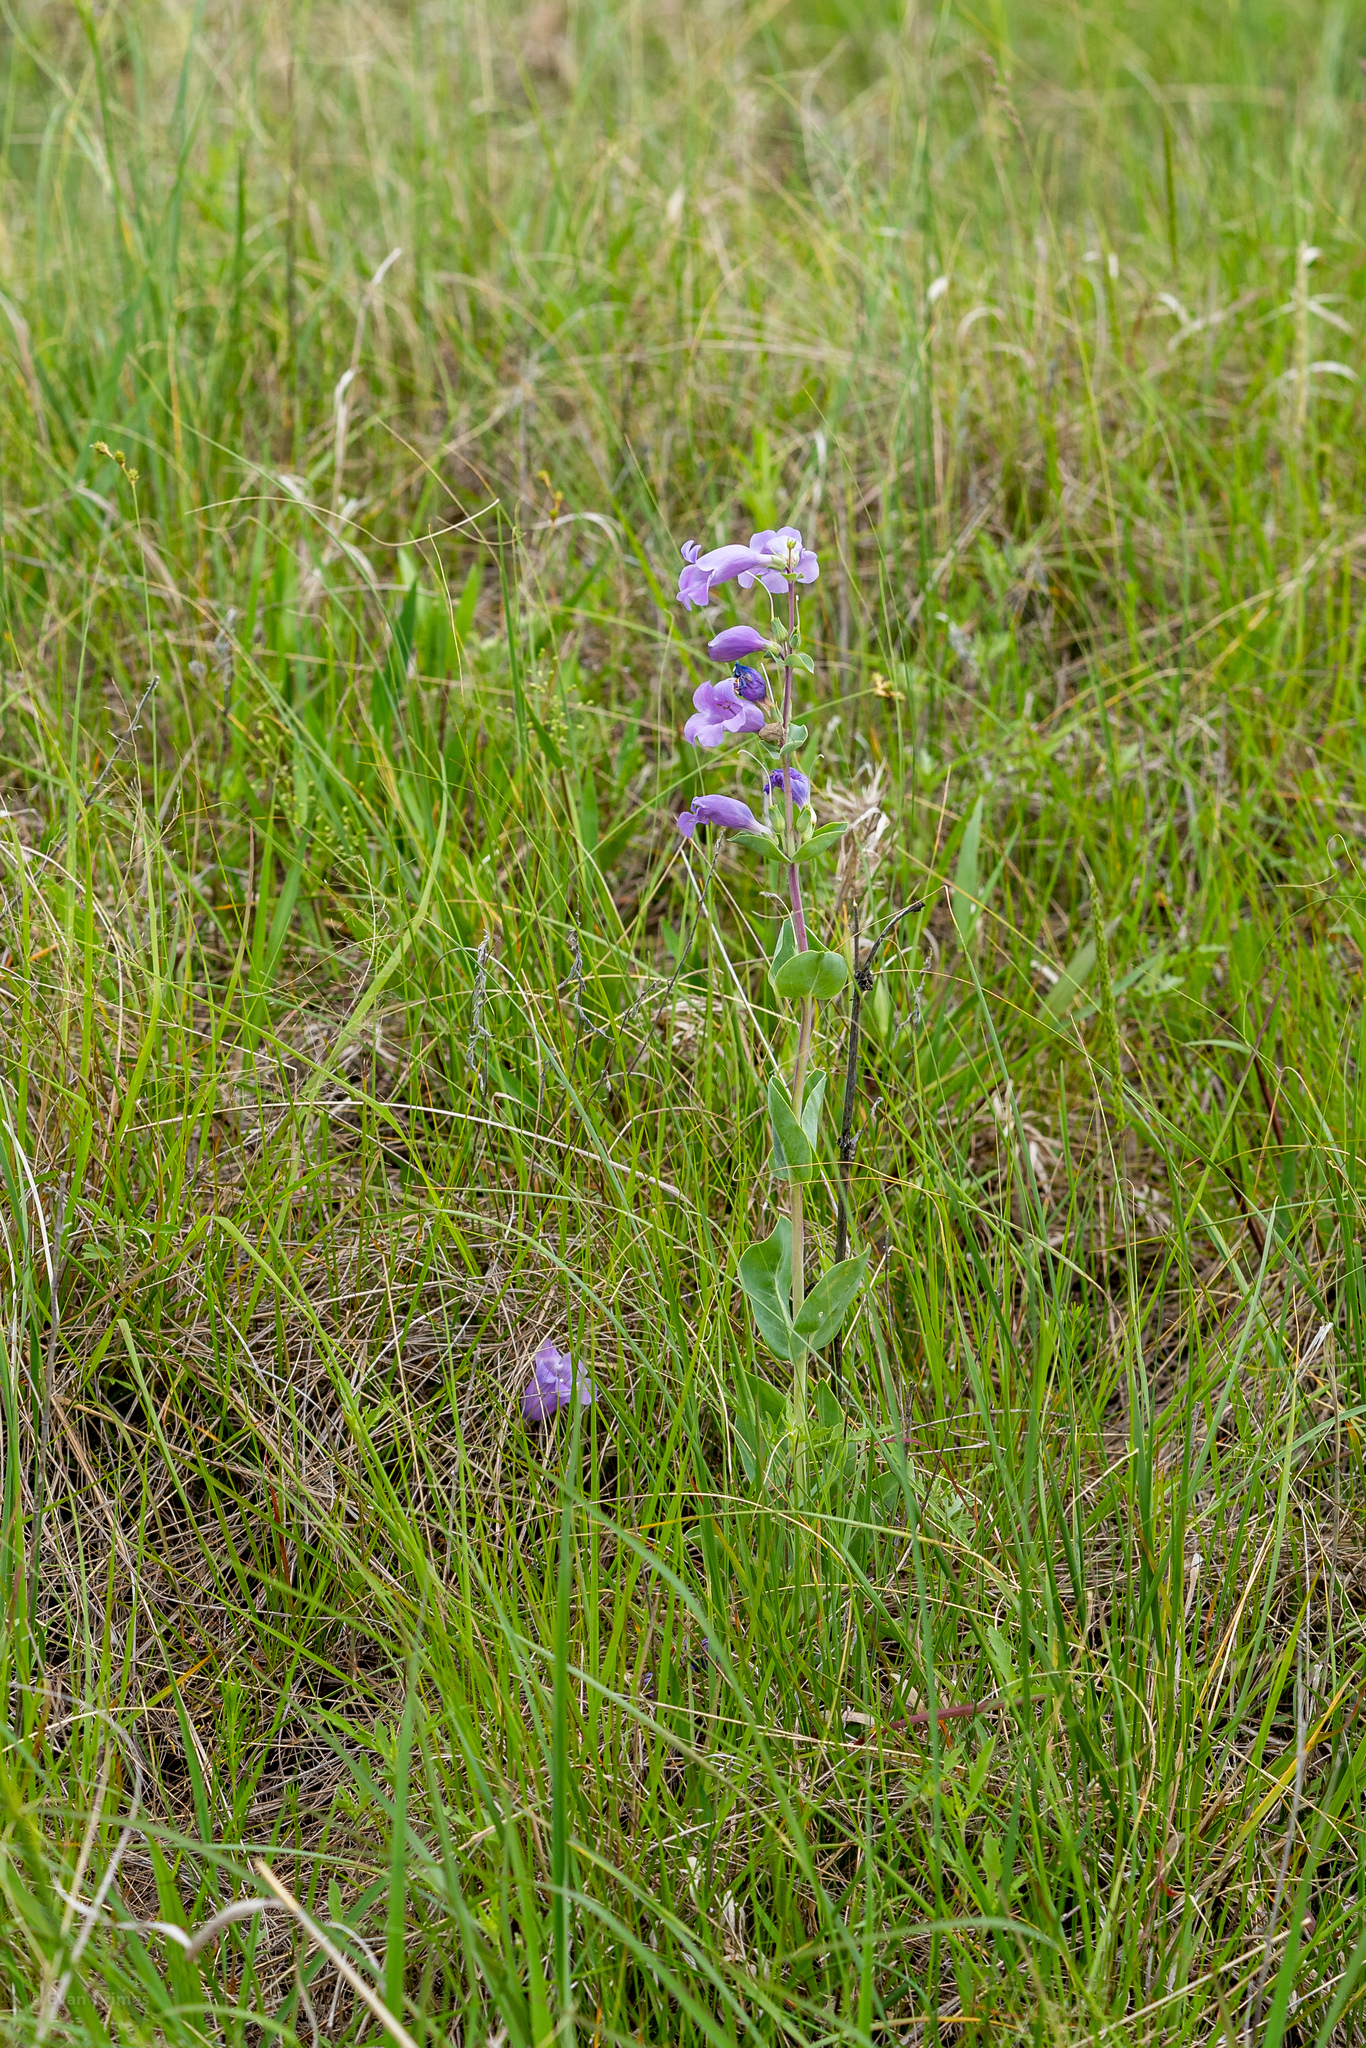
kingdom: Plantae
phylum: Tracheophyta
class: Magnoliopsida
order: Lamiales
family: Plantaginaceae
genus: Penstemon
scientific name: Penstemon
